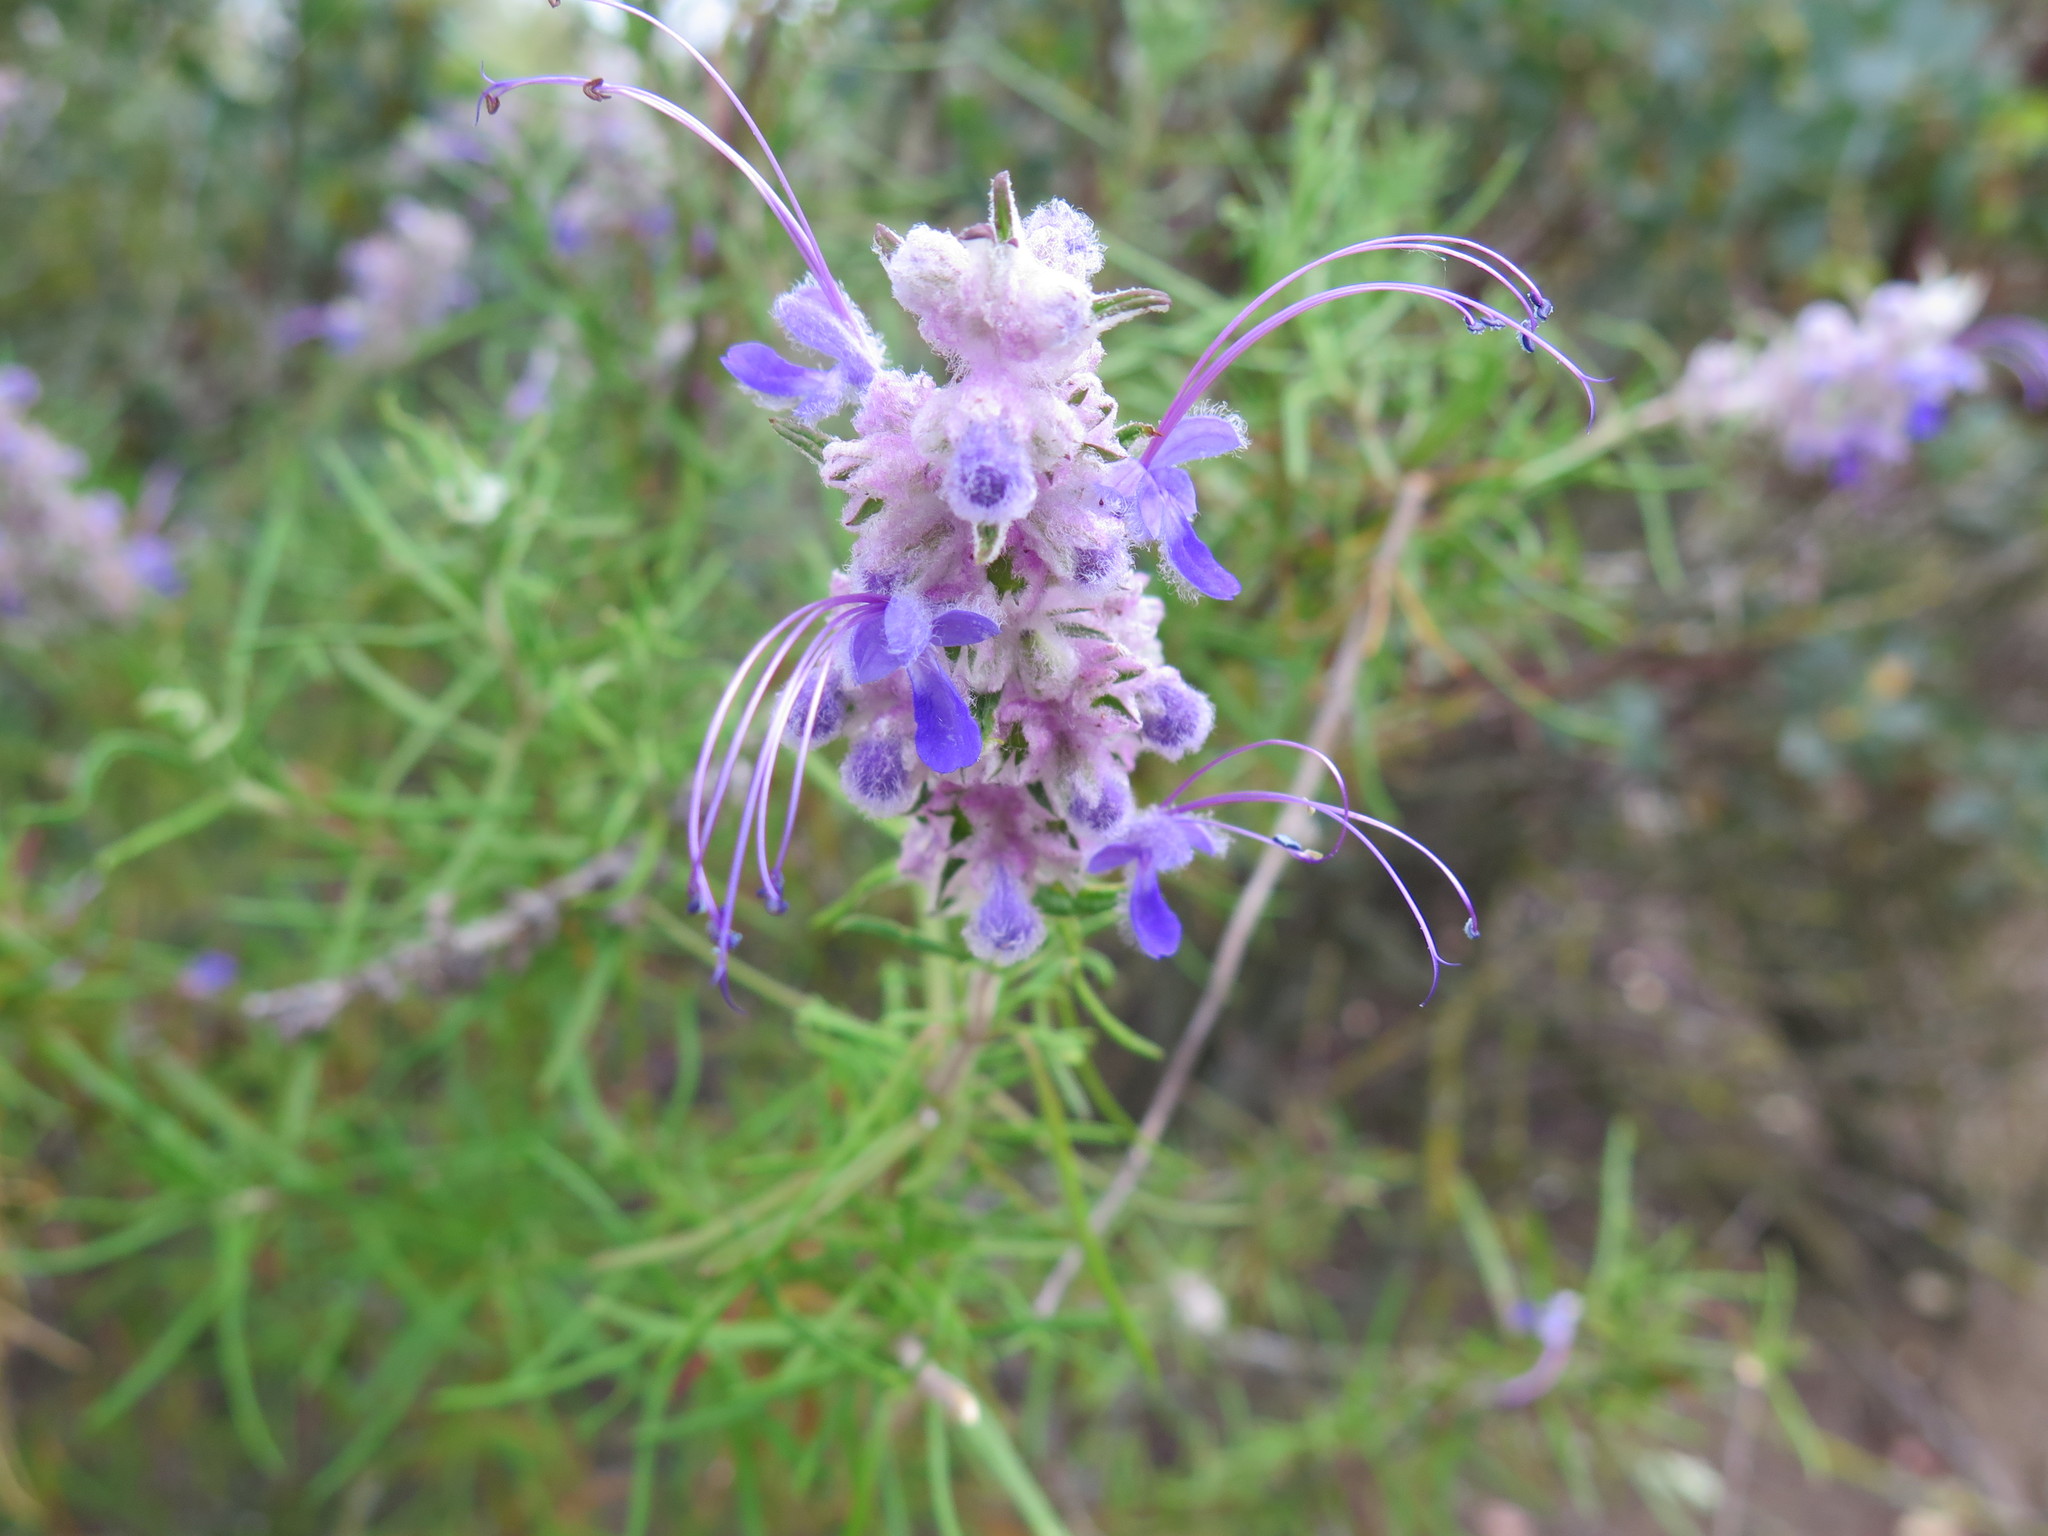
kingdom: Plantae
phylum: Tracheophyta
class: Magnoliopsida
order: Lamiales
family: Lamiaceae
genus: Trichostema
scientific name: Trichostema lanatum
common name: Woolly bluecurls
